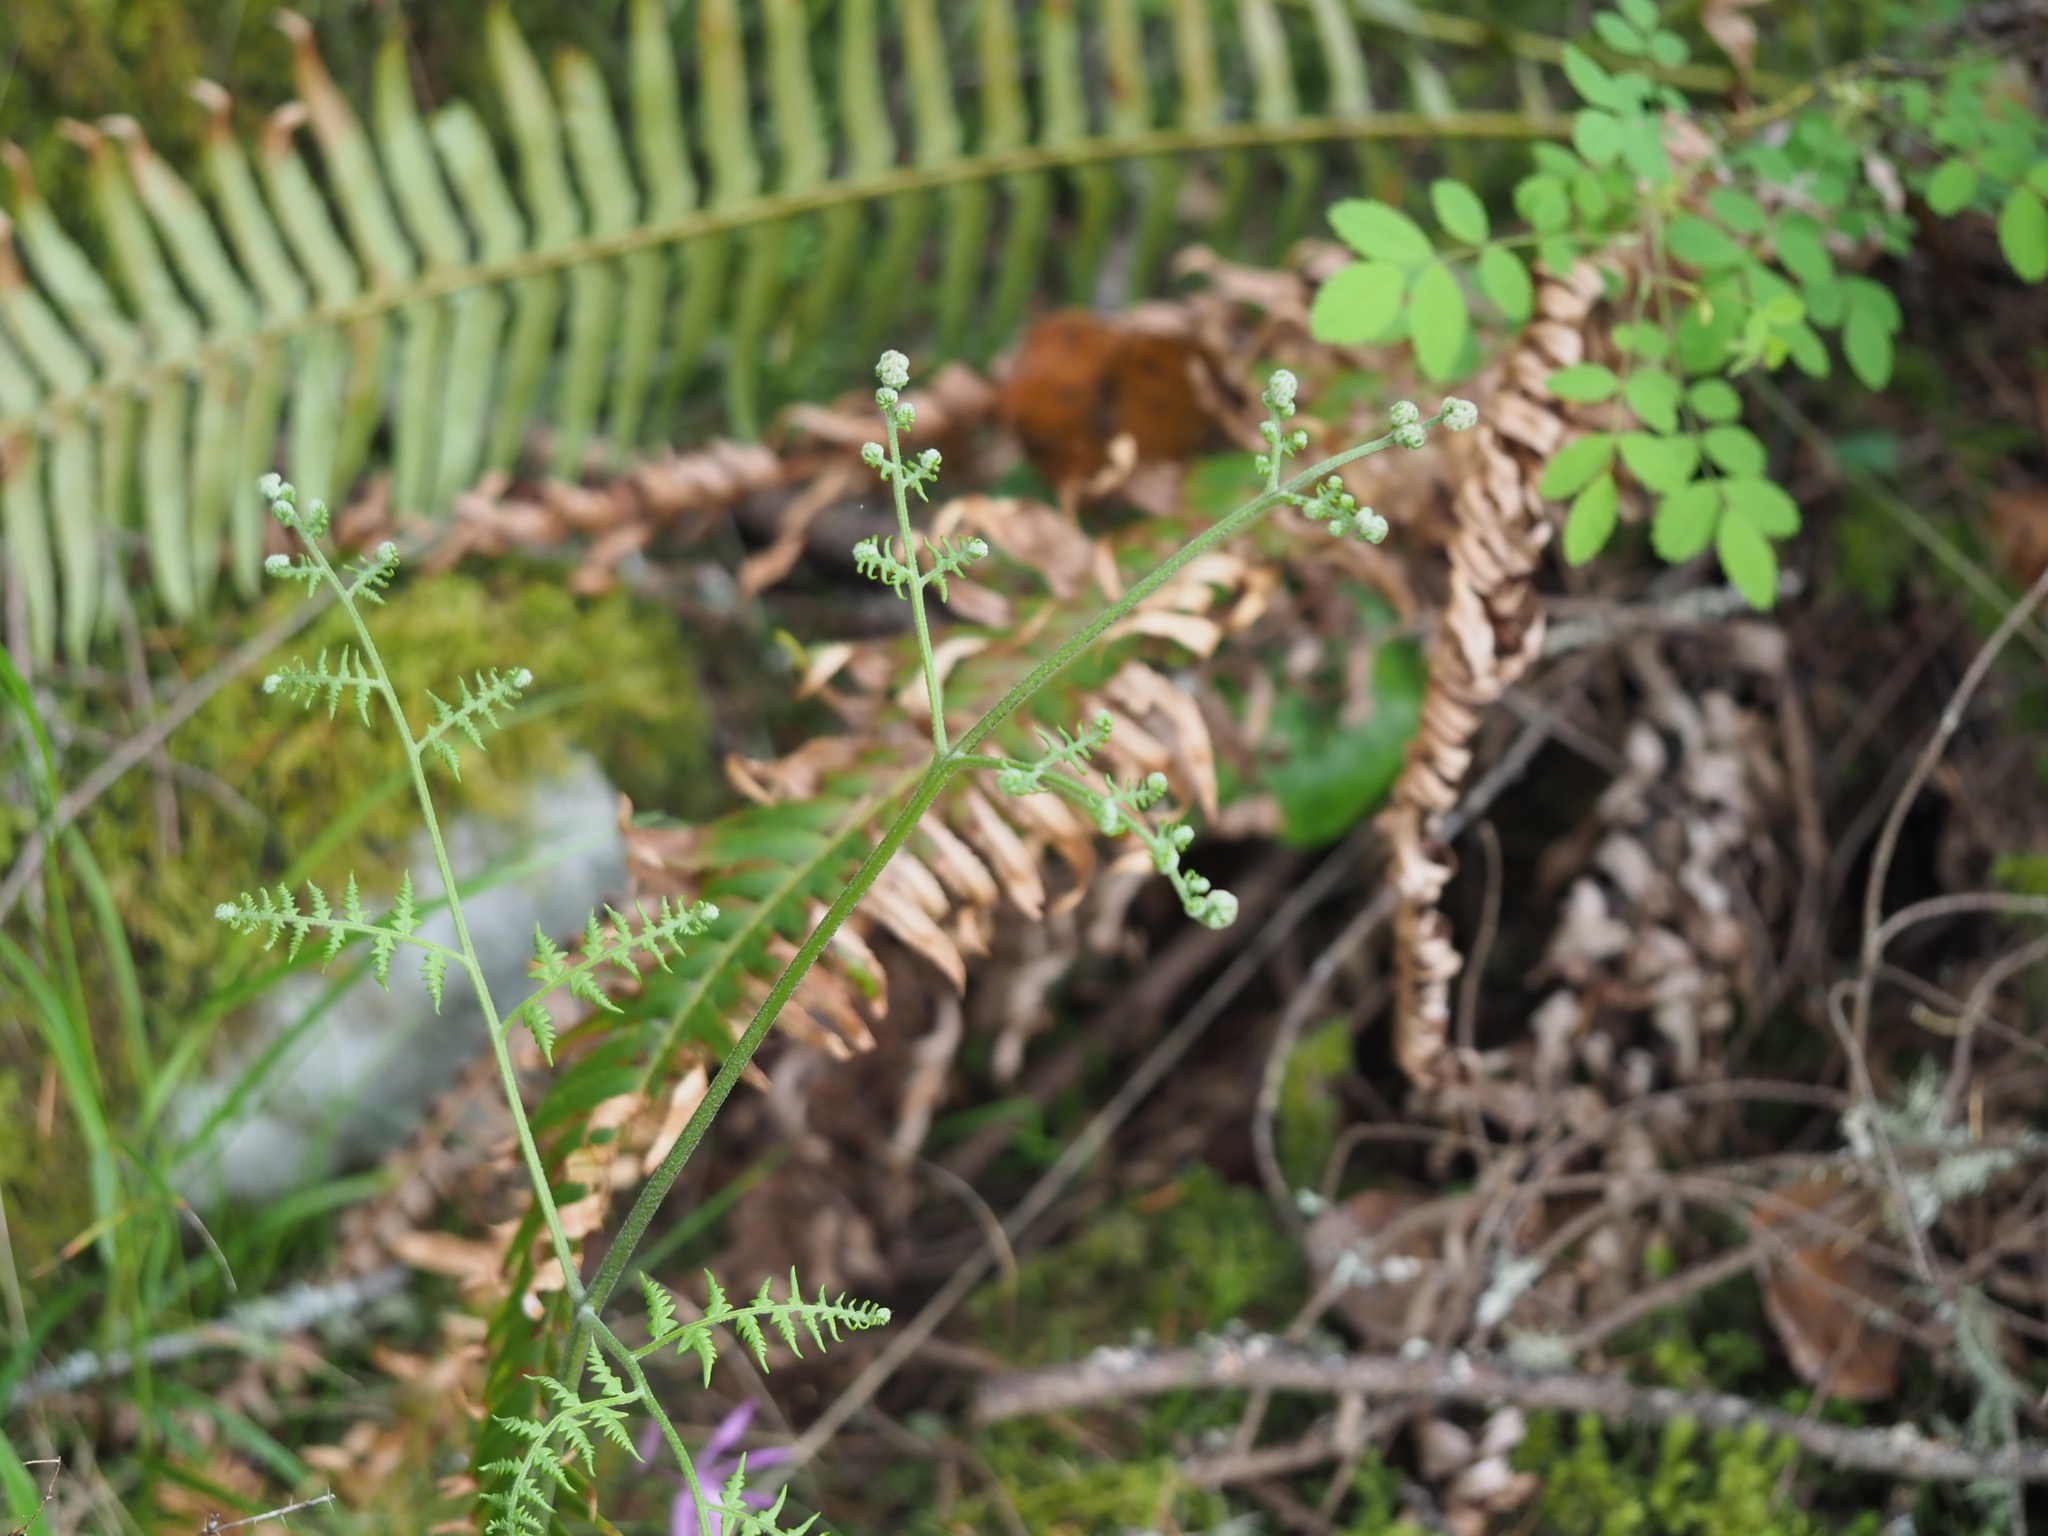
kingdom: Plantae
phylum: Tracheophyta
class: Polypodiopsida
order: Polypodiales
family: Dennstaedtiaceae
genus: Pteridium
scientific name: Pteridium aquilinum
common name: Bracken
